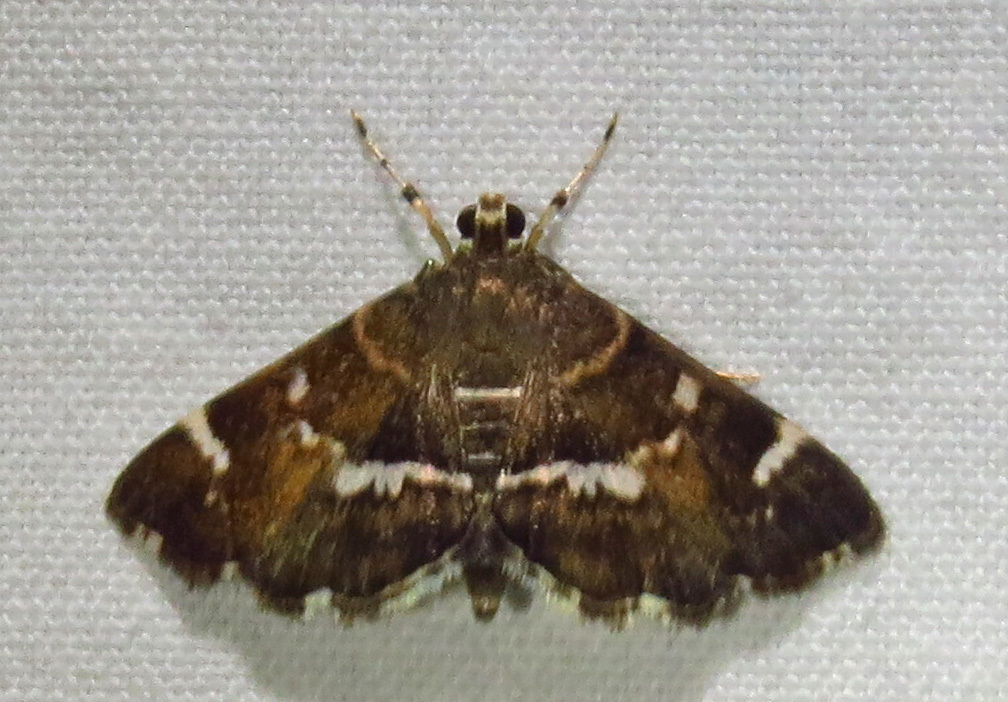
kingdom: Animalia
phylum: Arthropoda
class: Insecta
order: Lepidoptera
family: Crambidae
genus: Hymenia
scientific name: Hymenia perspectalis
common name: Spotted beet webworm
